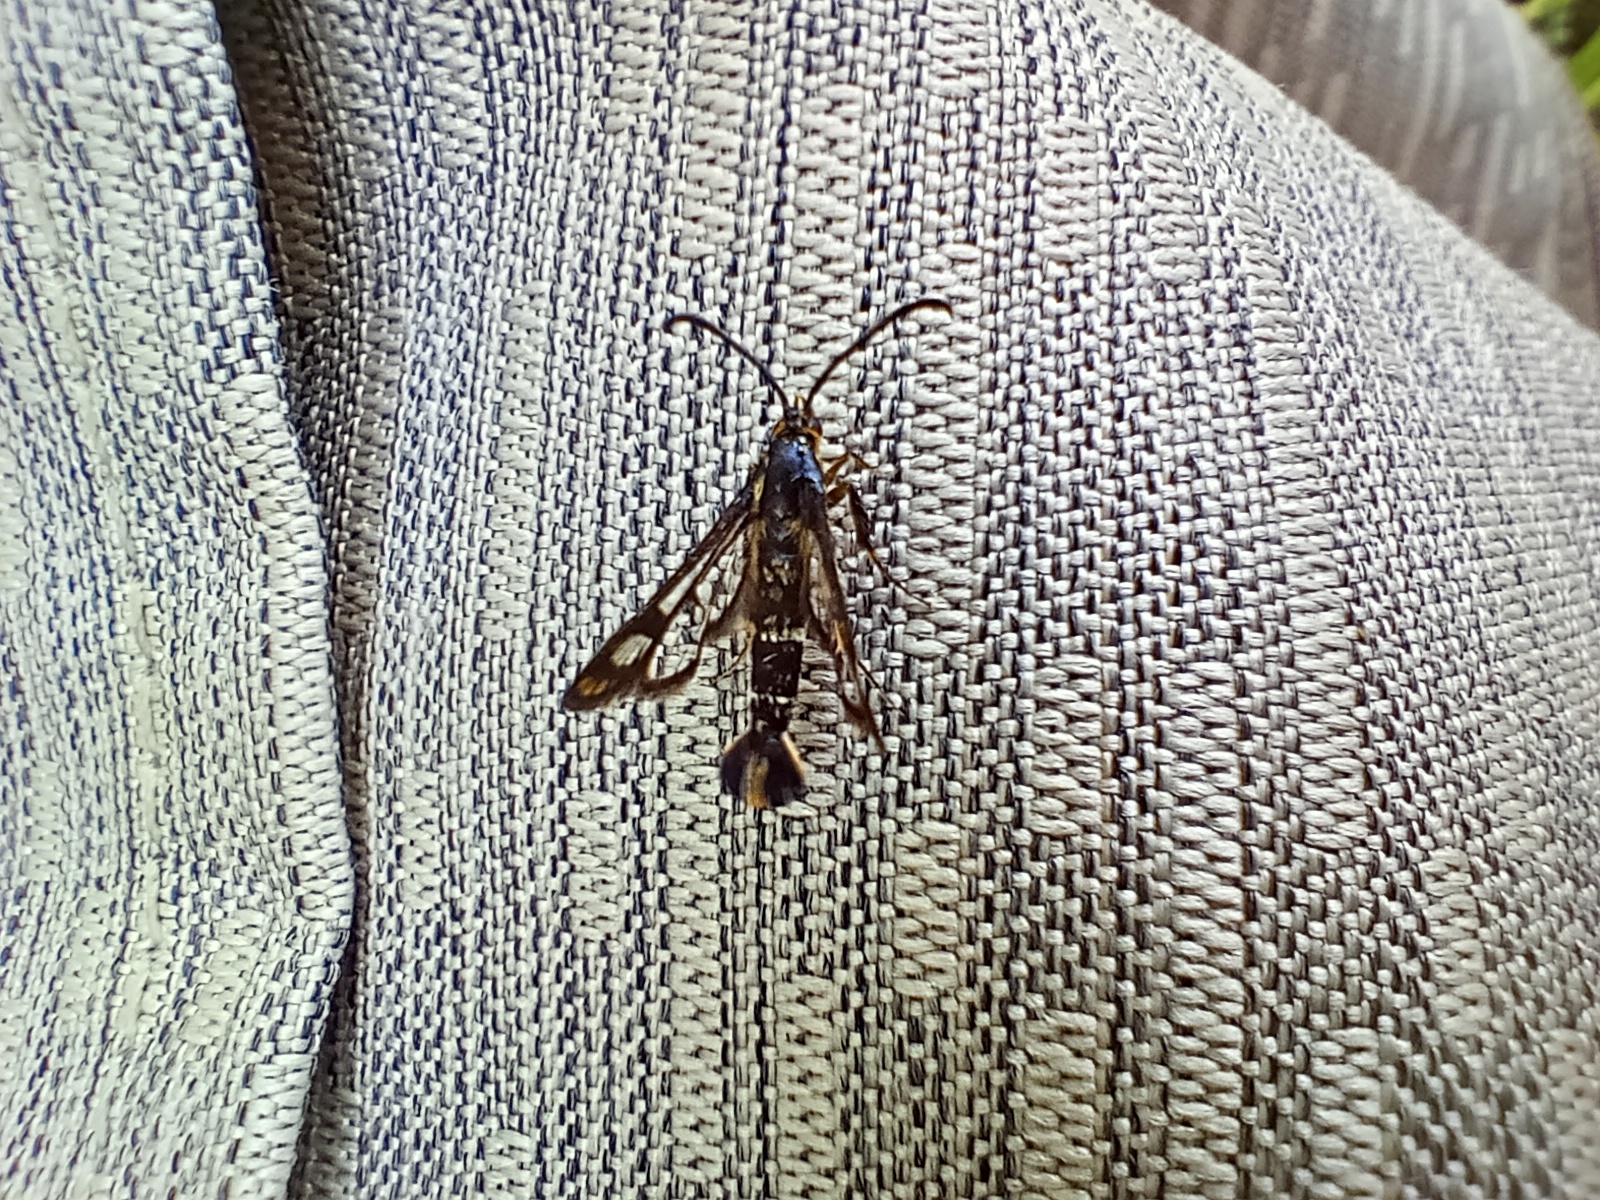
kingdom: Animalia
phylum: Arthropoda
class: Insecta
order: Lepidoptera
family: Sesiidae
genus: Chamaesphecia
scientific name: Chamaesphecia empiformis
